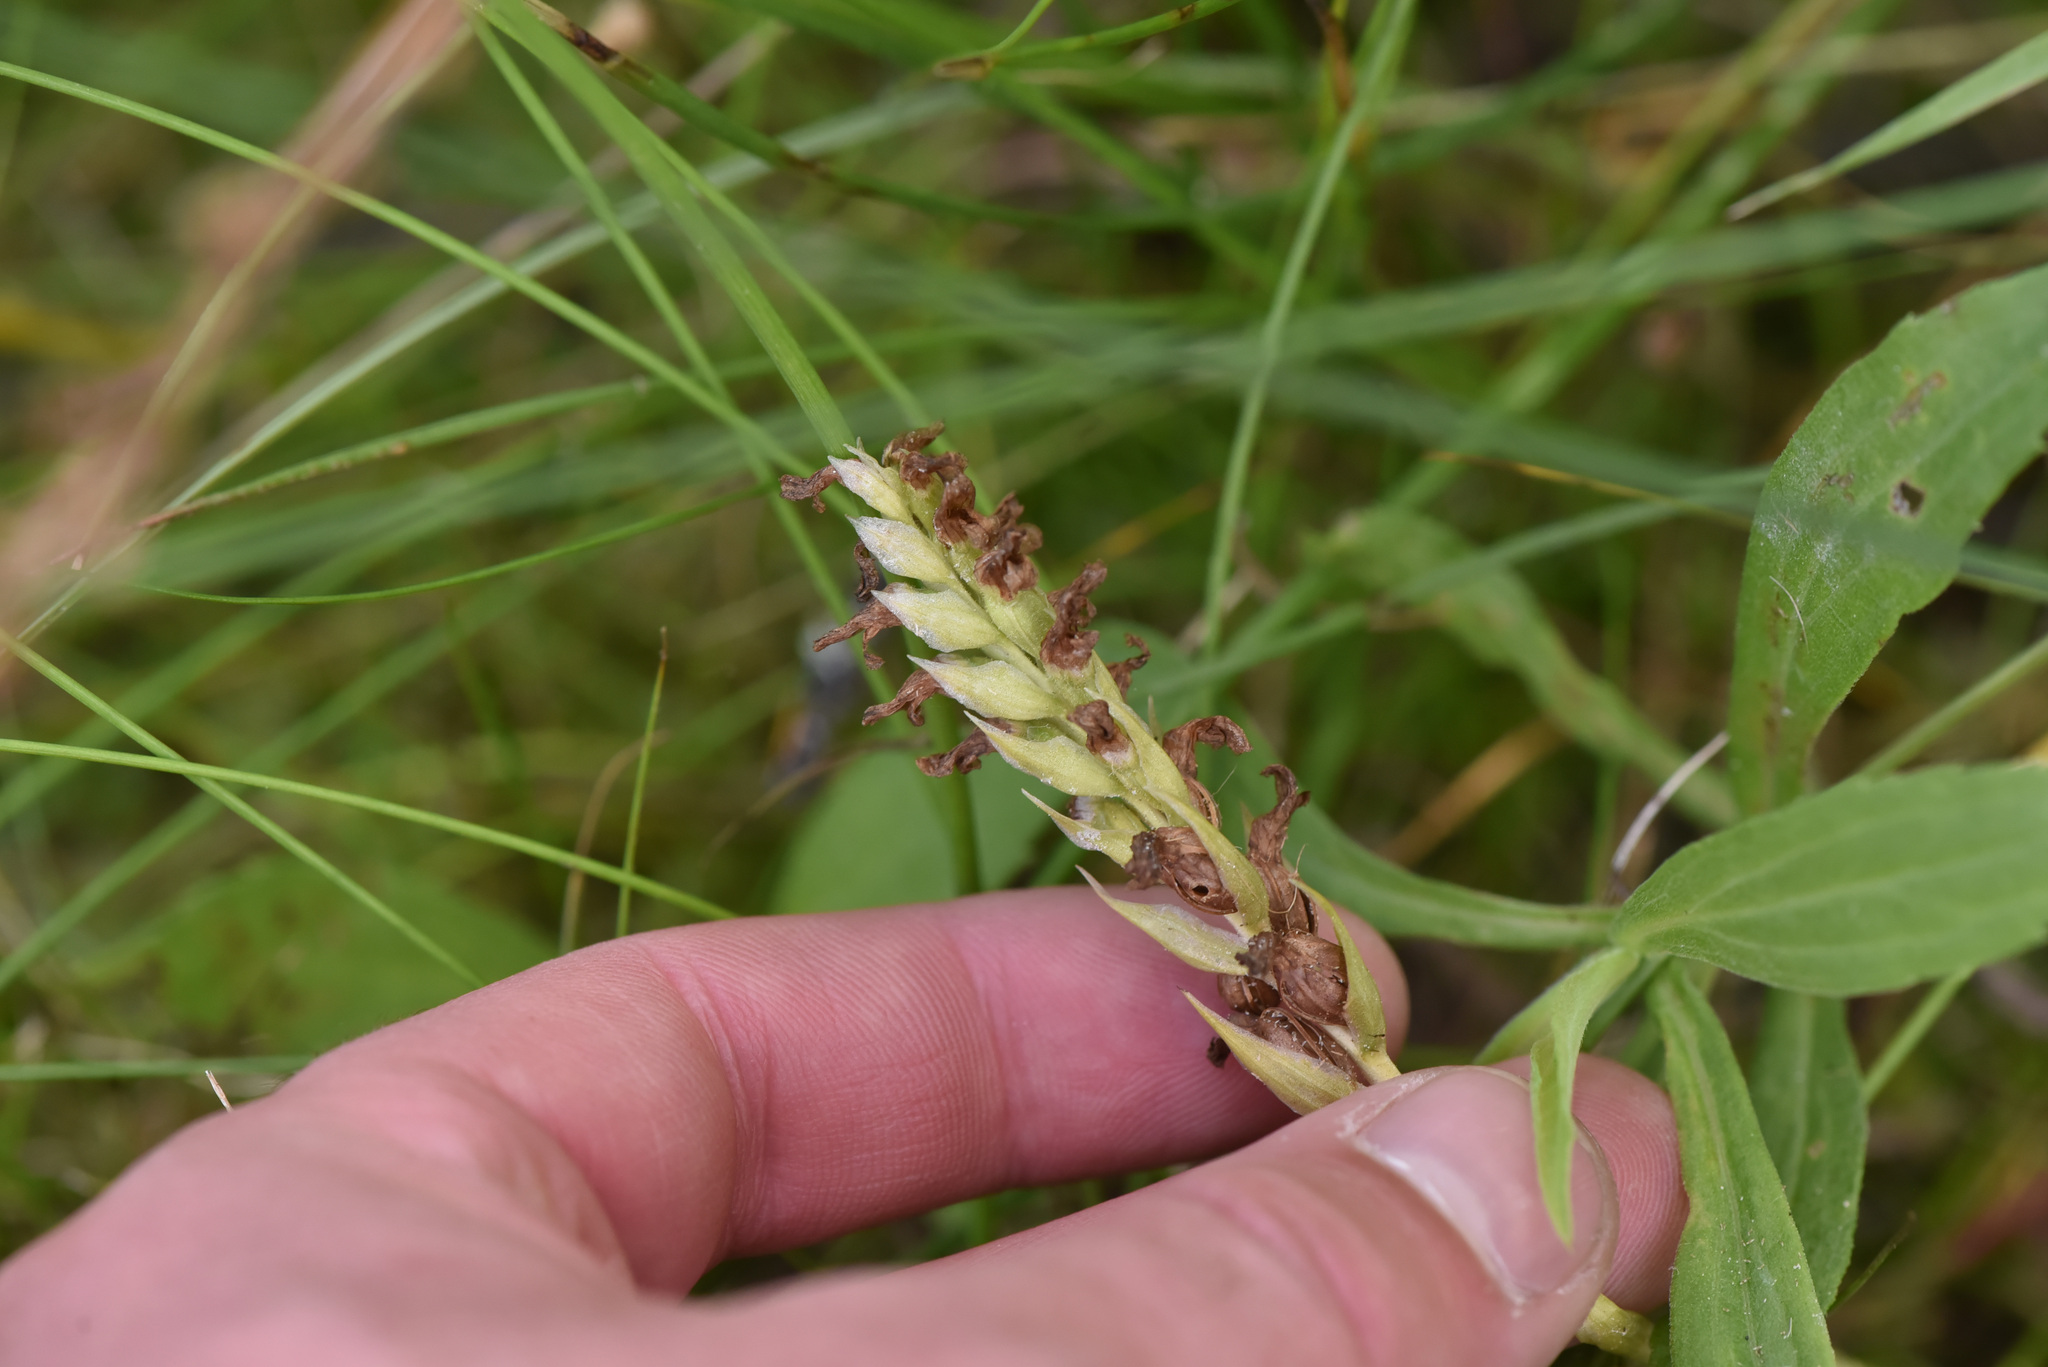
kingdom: Plantae
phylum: Tracheophyta
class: Liliopsida
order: Asparagales
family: Orchidaceae
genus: Spiranthes
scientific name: Spiranthes romanzoffiana
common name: Irish lady's-tresses
